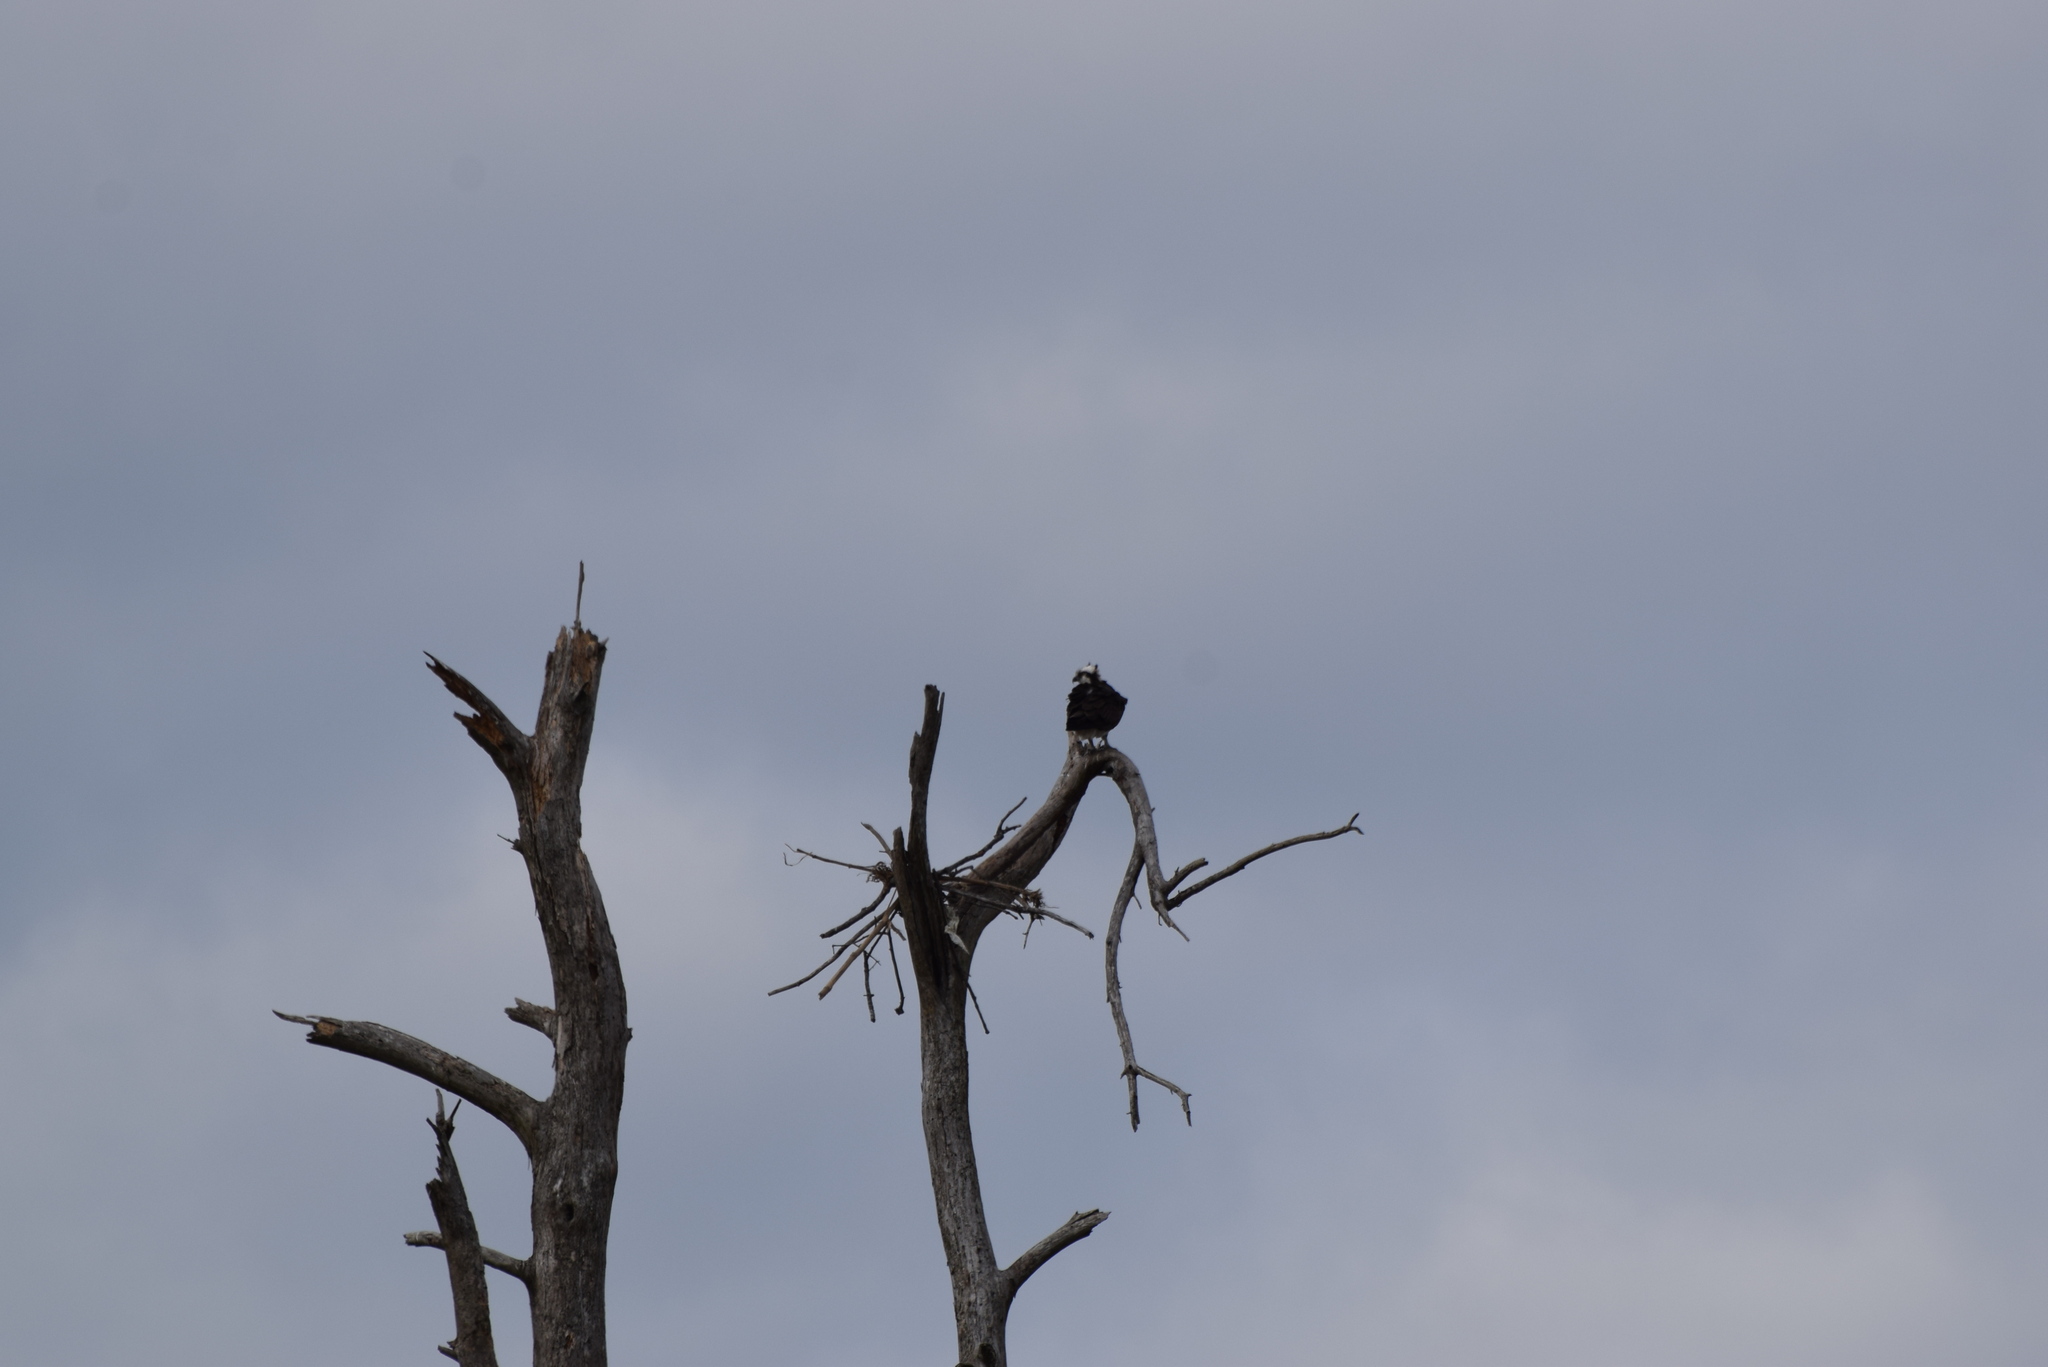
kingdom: Animalia
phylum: Chordata
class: Aves
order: Accipitriformes
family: Pandionidae
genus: Pandion
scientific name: Pandion haliaetus
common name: Osprey
